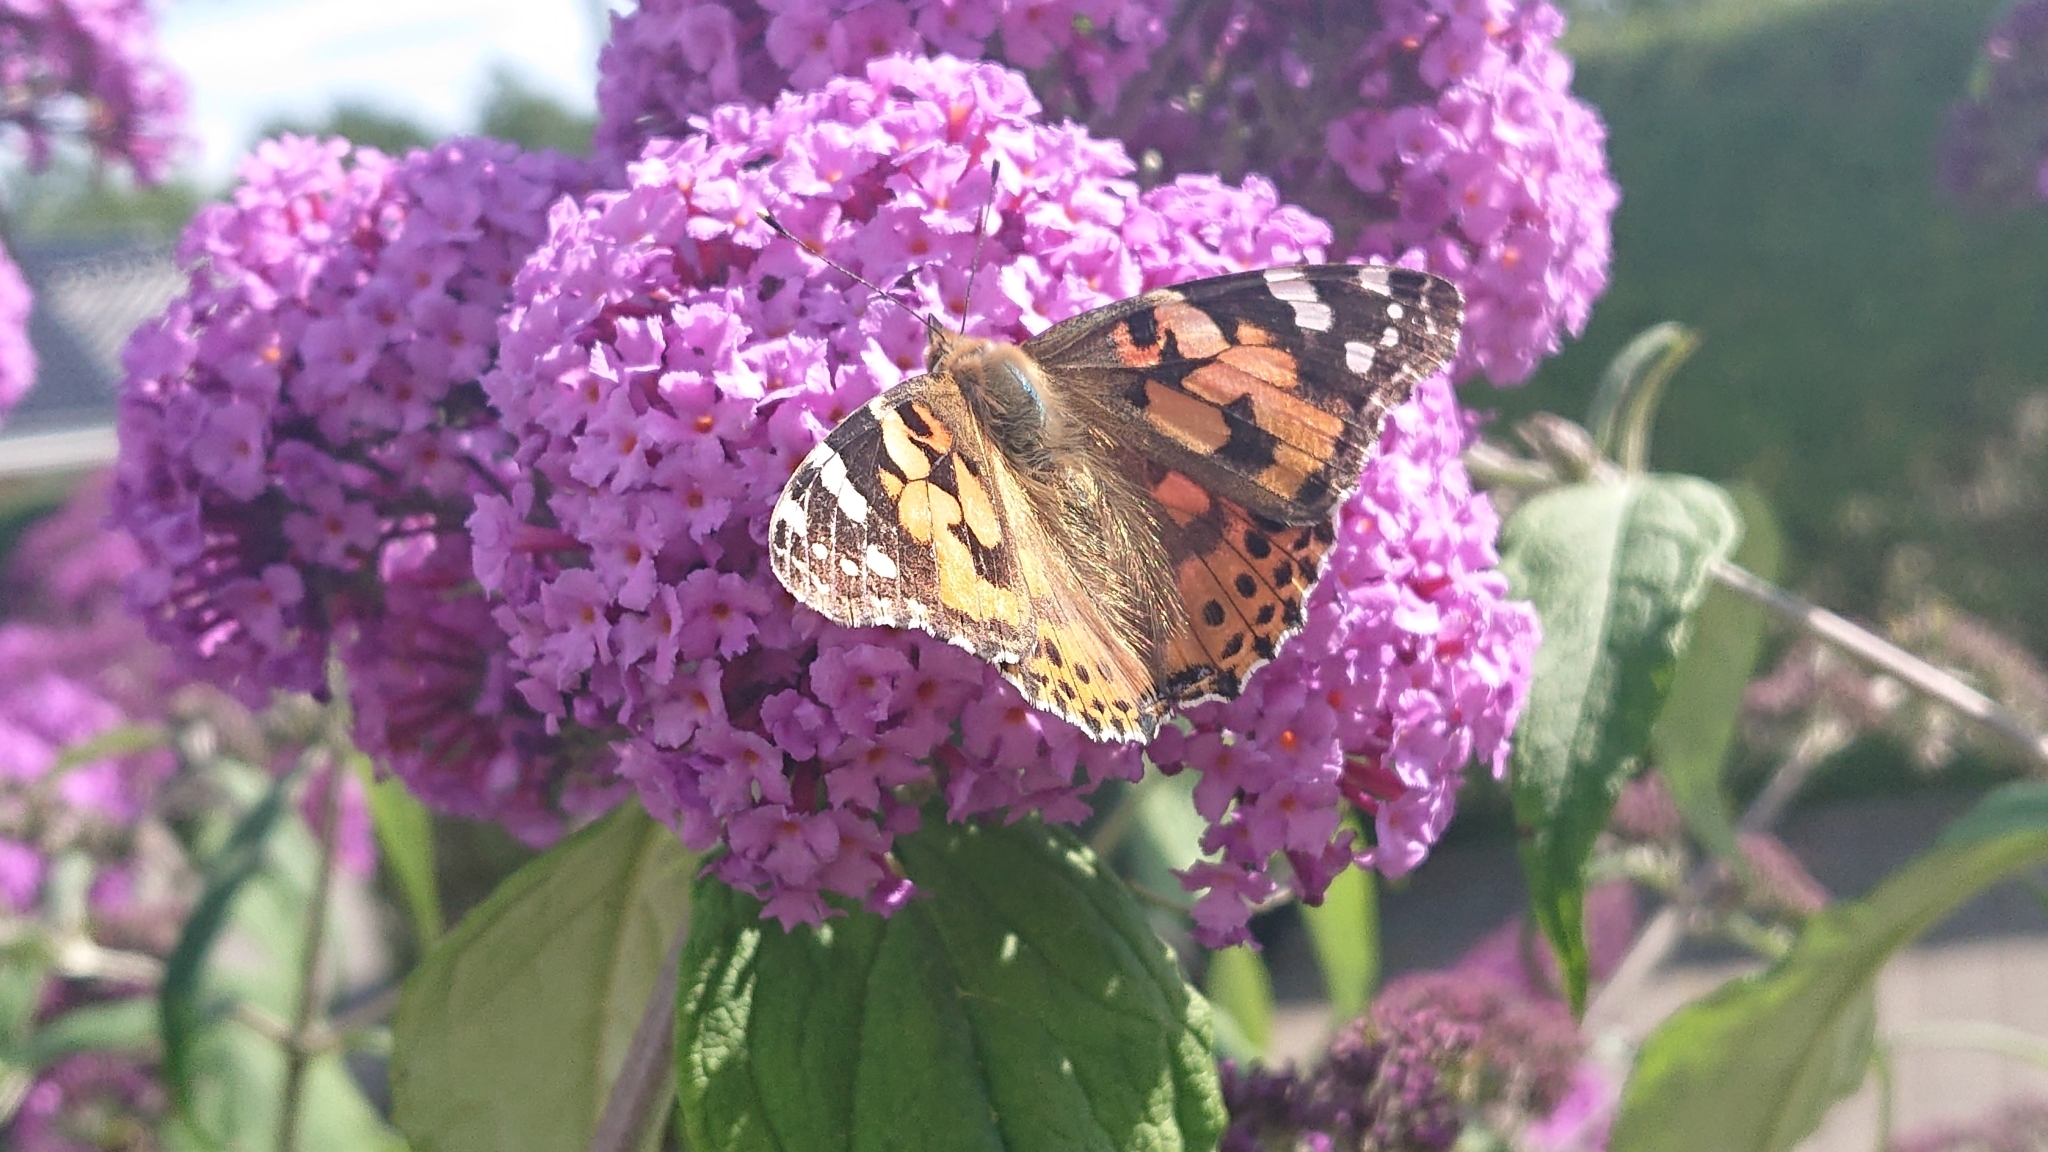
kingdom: Animalia
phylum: Arthropoda
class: Insecta
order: Lepidoptera
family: Nymphalidae
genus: Vanessa
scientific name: Vanessa cardui
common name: Painted lady
